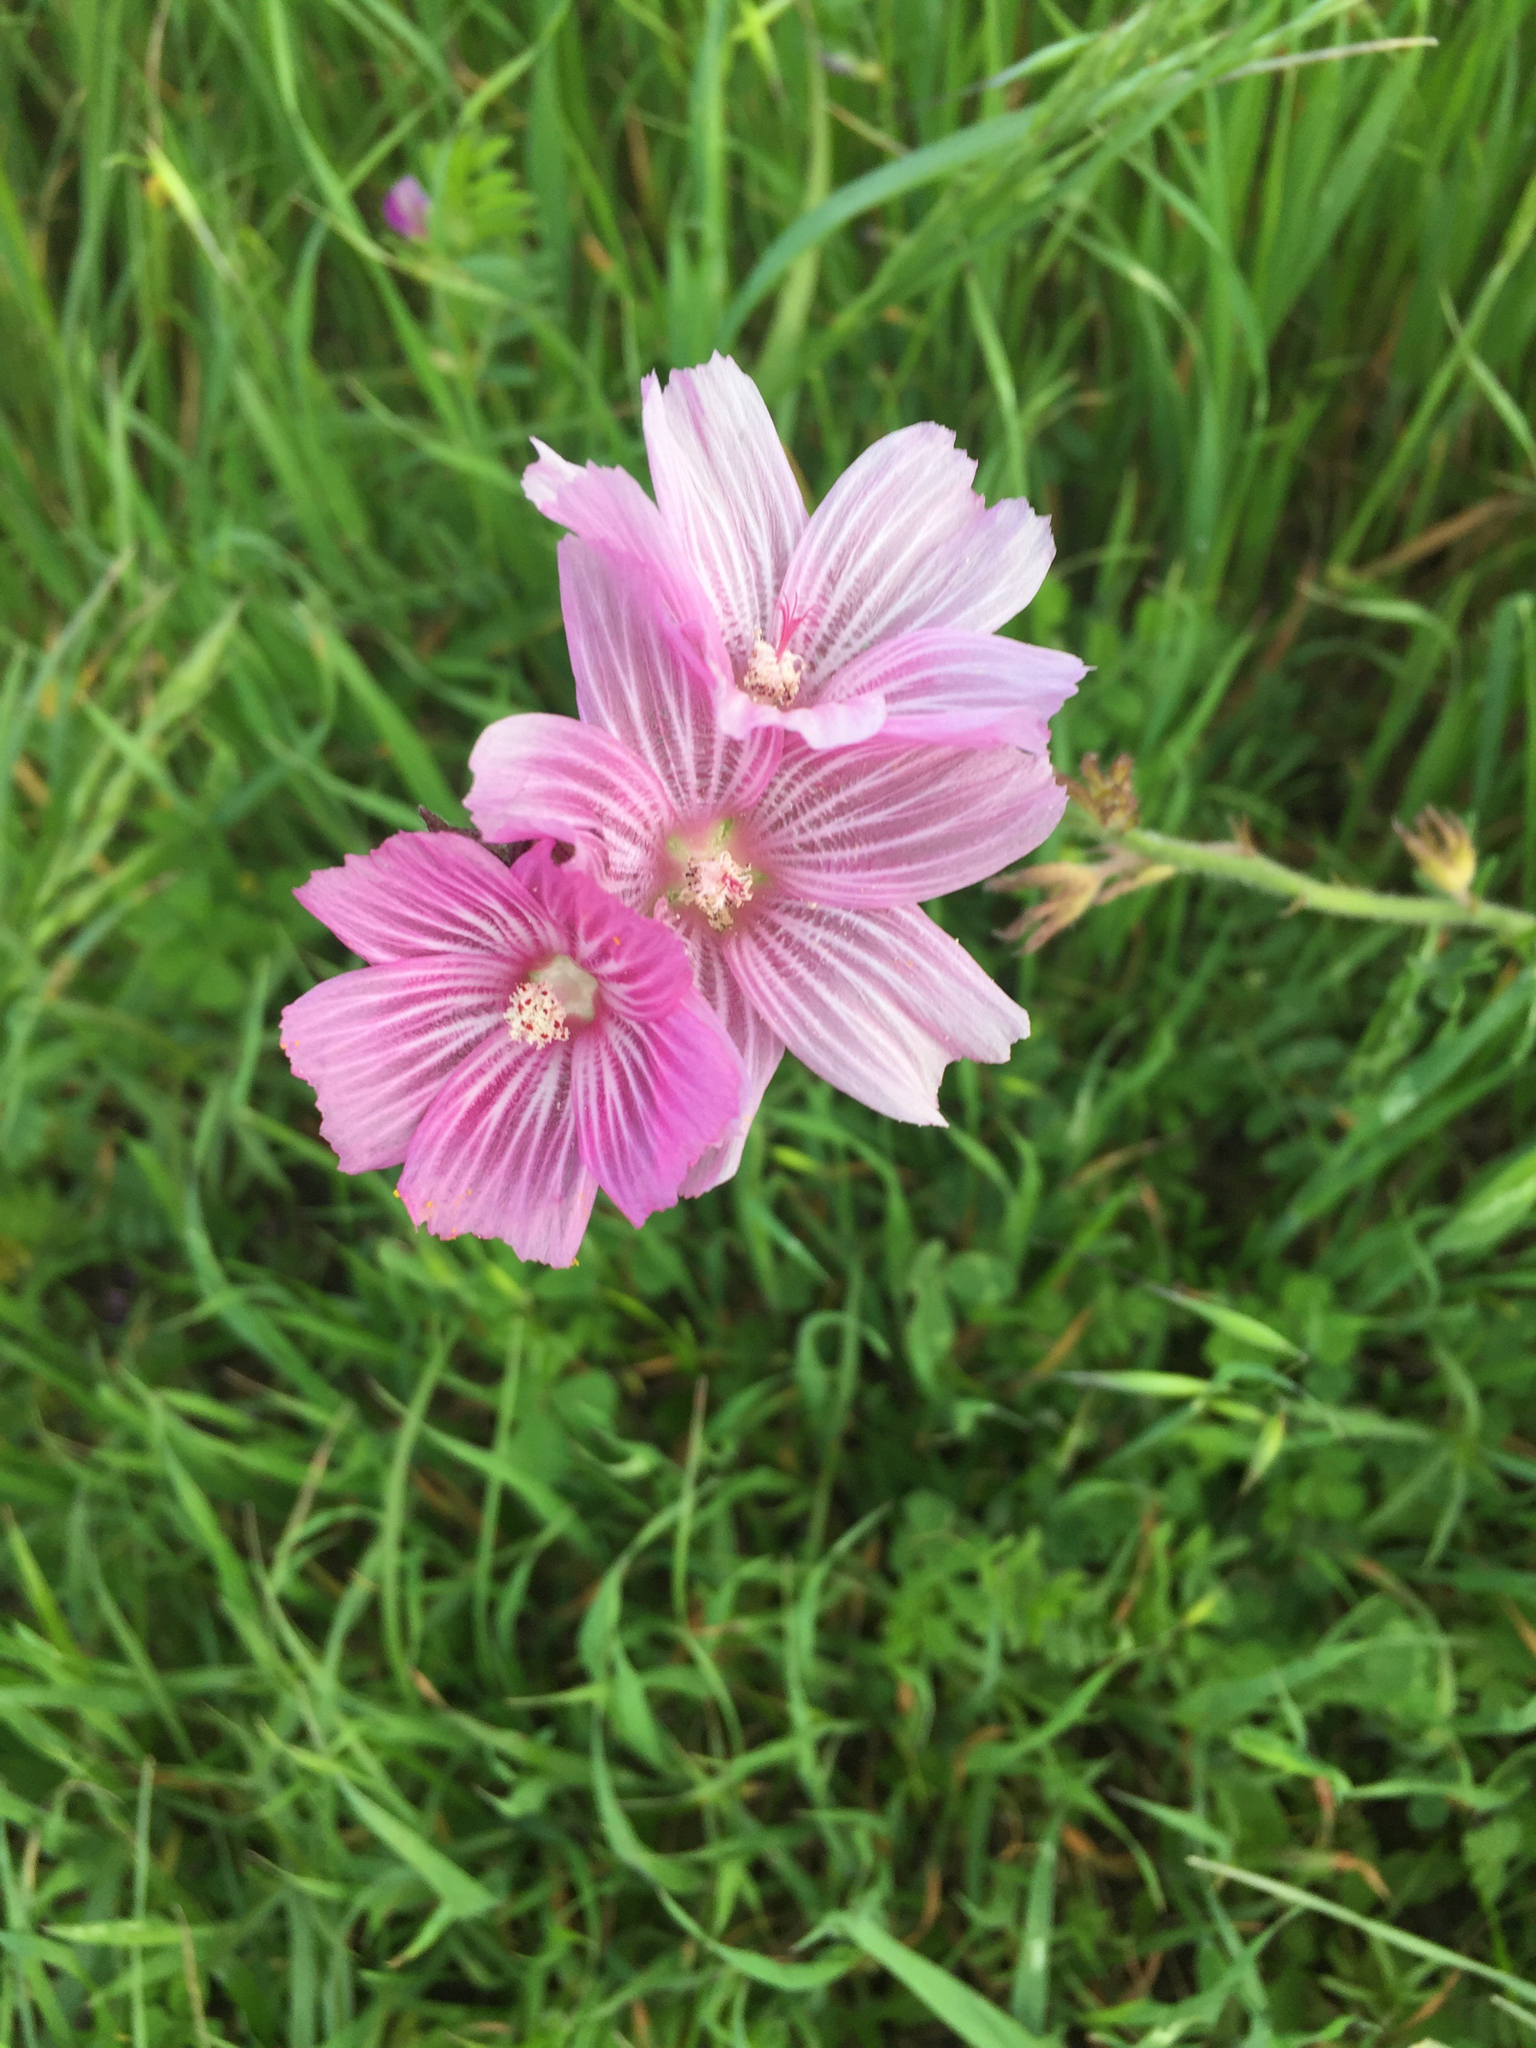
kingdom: Plantae
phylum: Tracheophyta
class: Magnoliopsida
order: Malvales
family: Malvaceae
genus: Sidalcea
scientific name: Sidalcea malviflora
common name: Greek mallow
